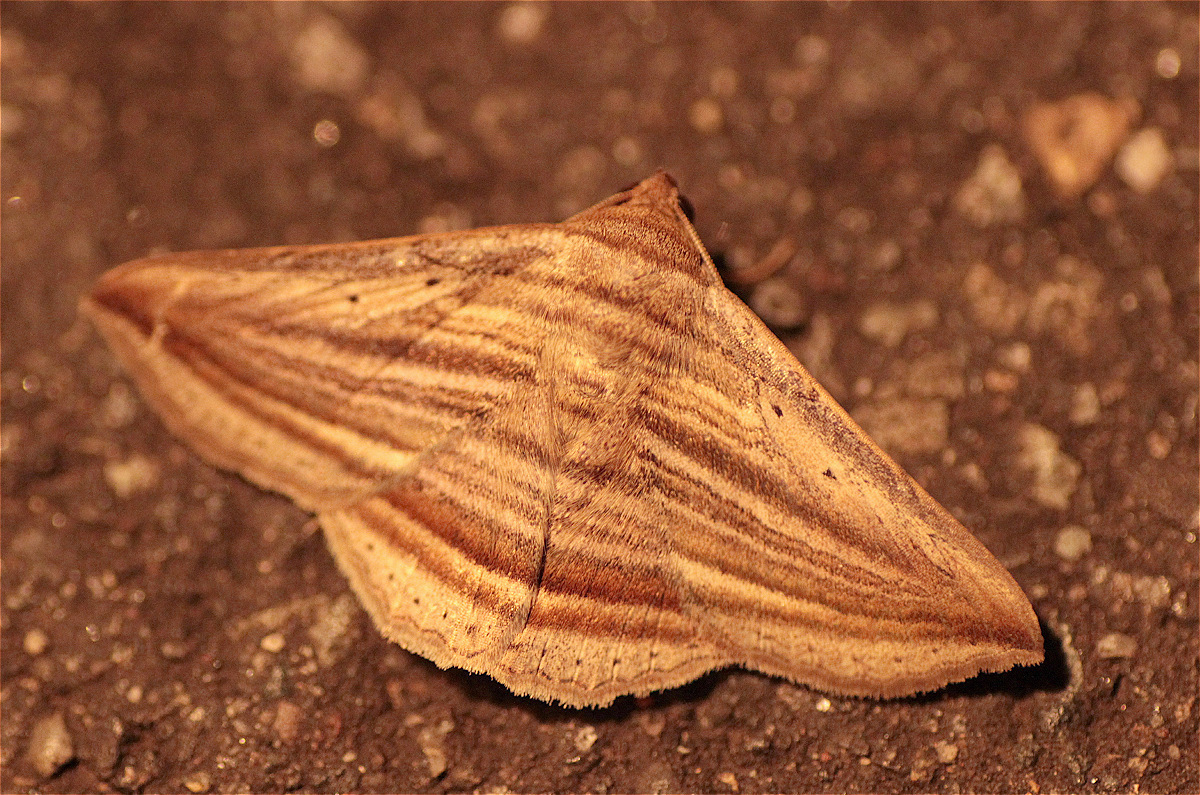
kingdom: Animalia
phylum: Arthropoda
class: Insecta
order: Lepidoptera
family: Erebidae
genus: Itomia
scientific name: Itomia multilinea
